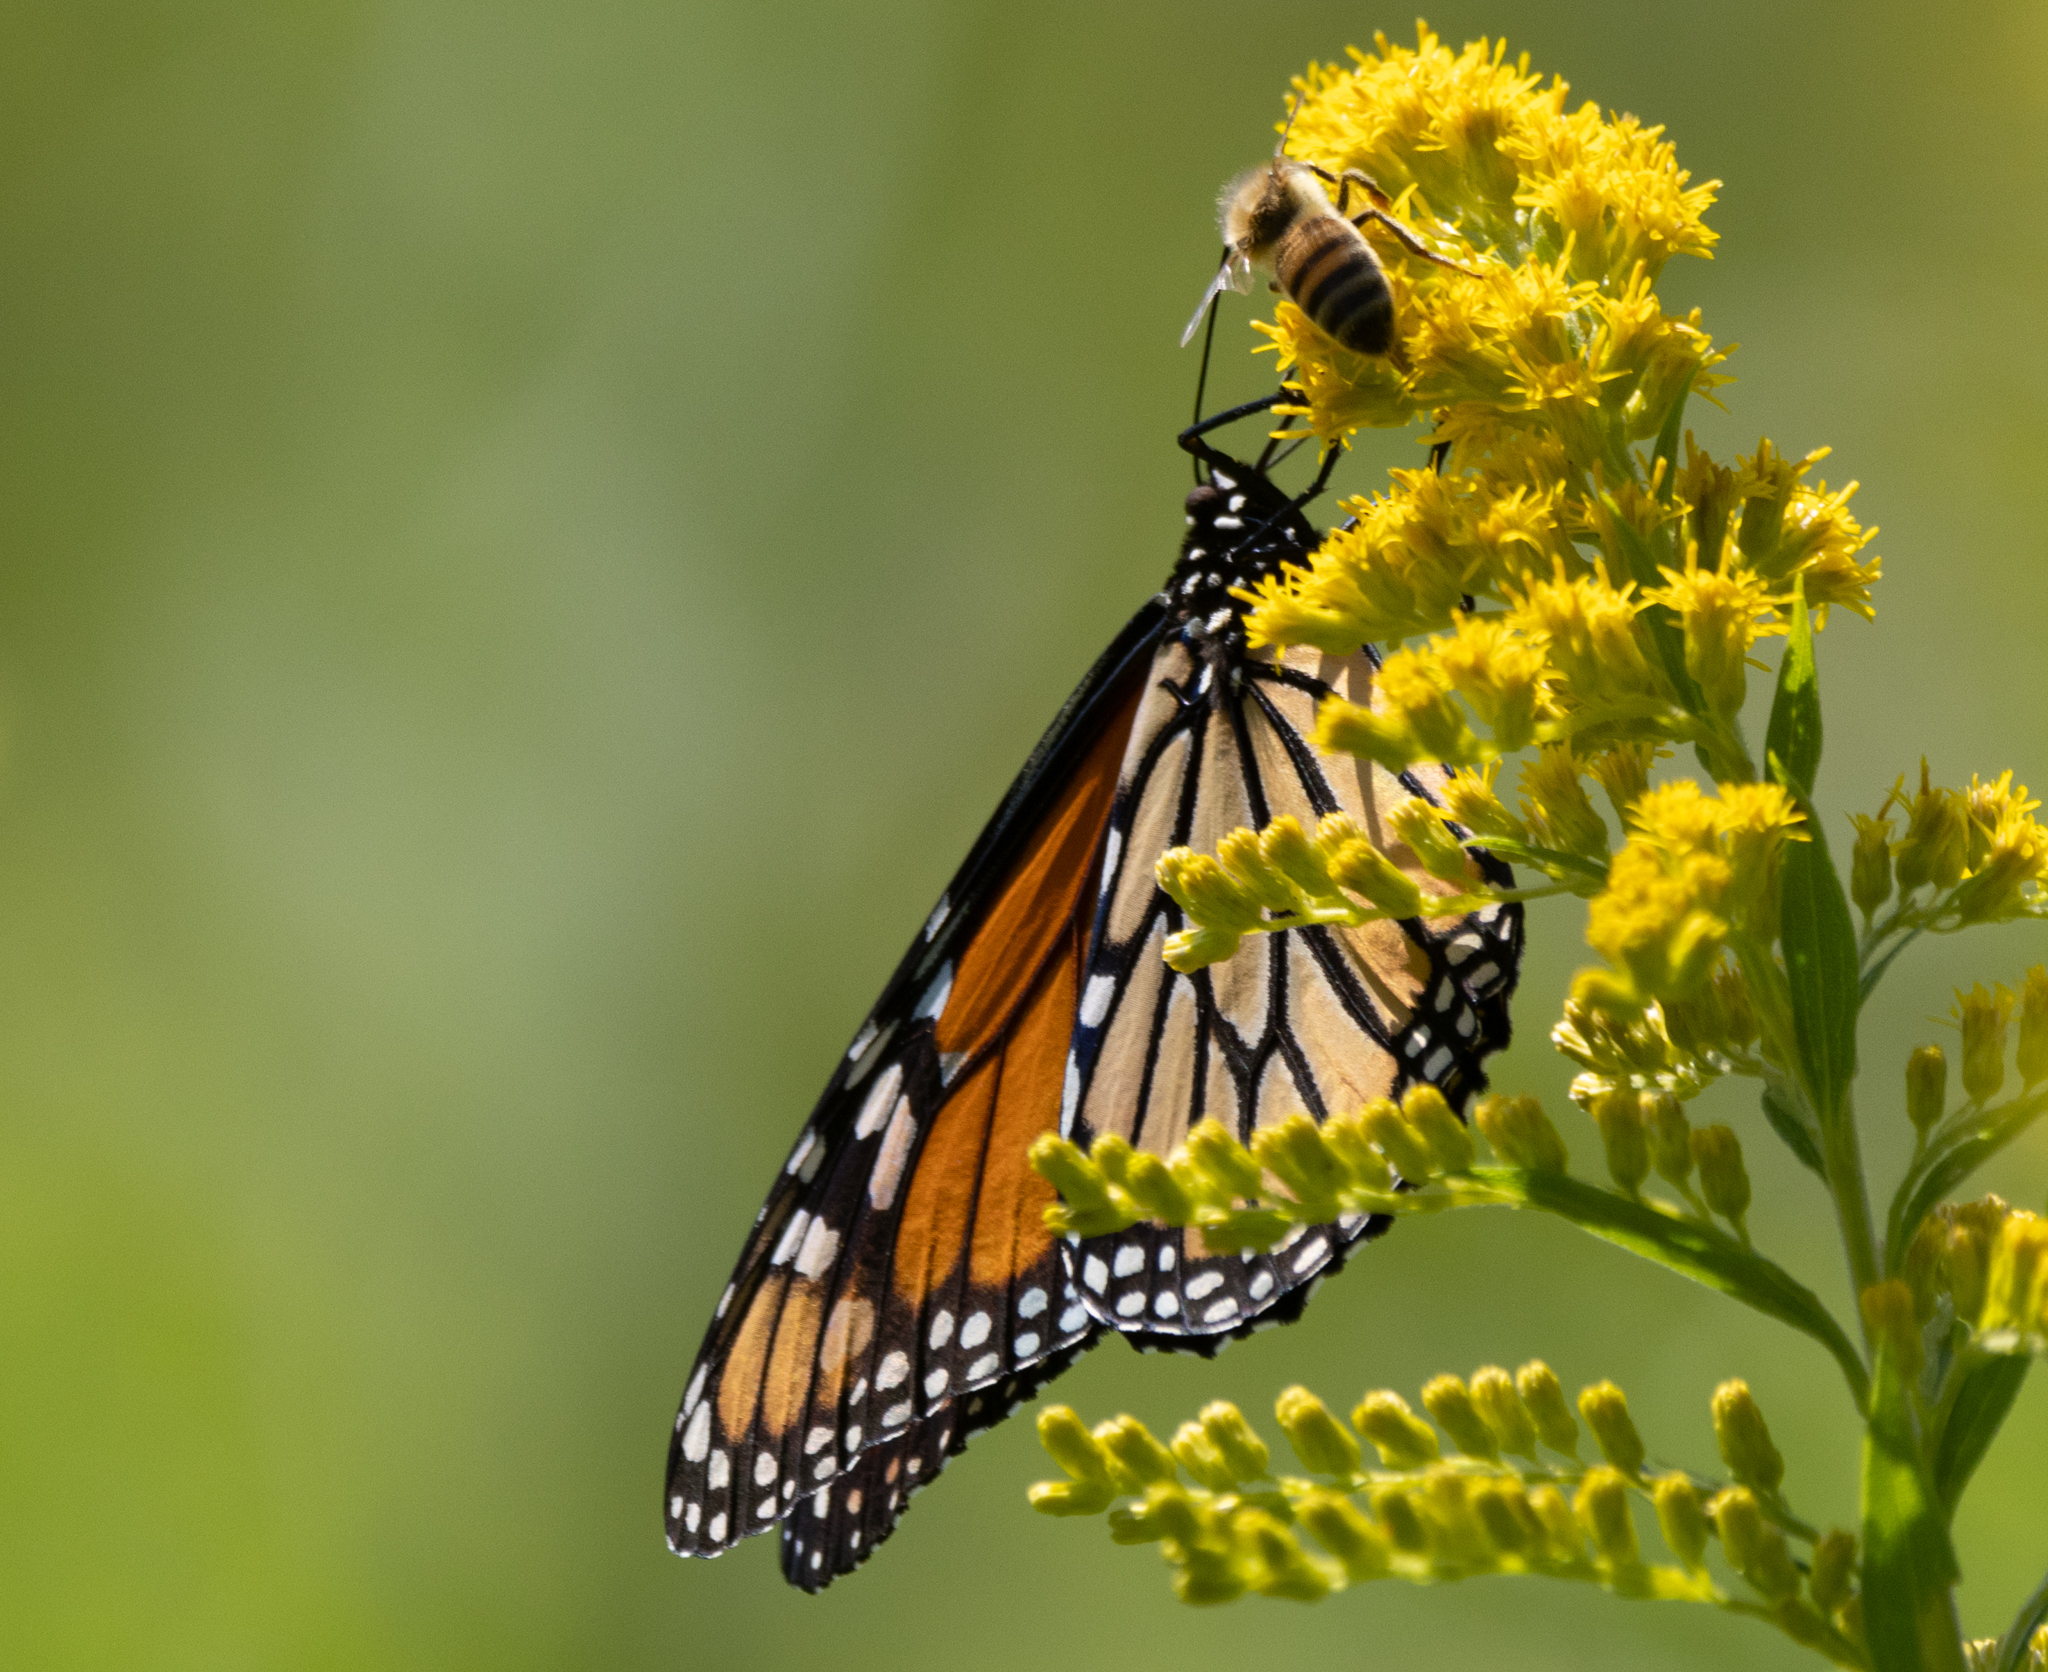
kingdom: Animalia
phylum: Arthropoda
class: Insecta
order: Lepidoptera
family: Nymphalidae
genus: Danaus
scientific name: Danaus plexippus
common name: Monarch
